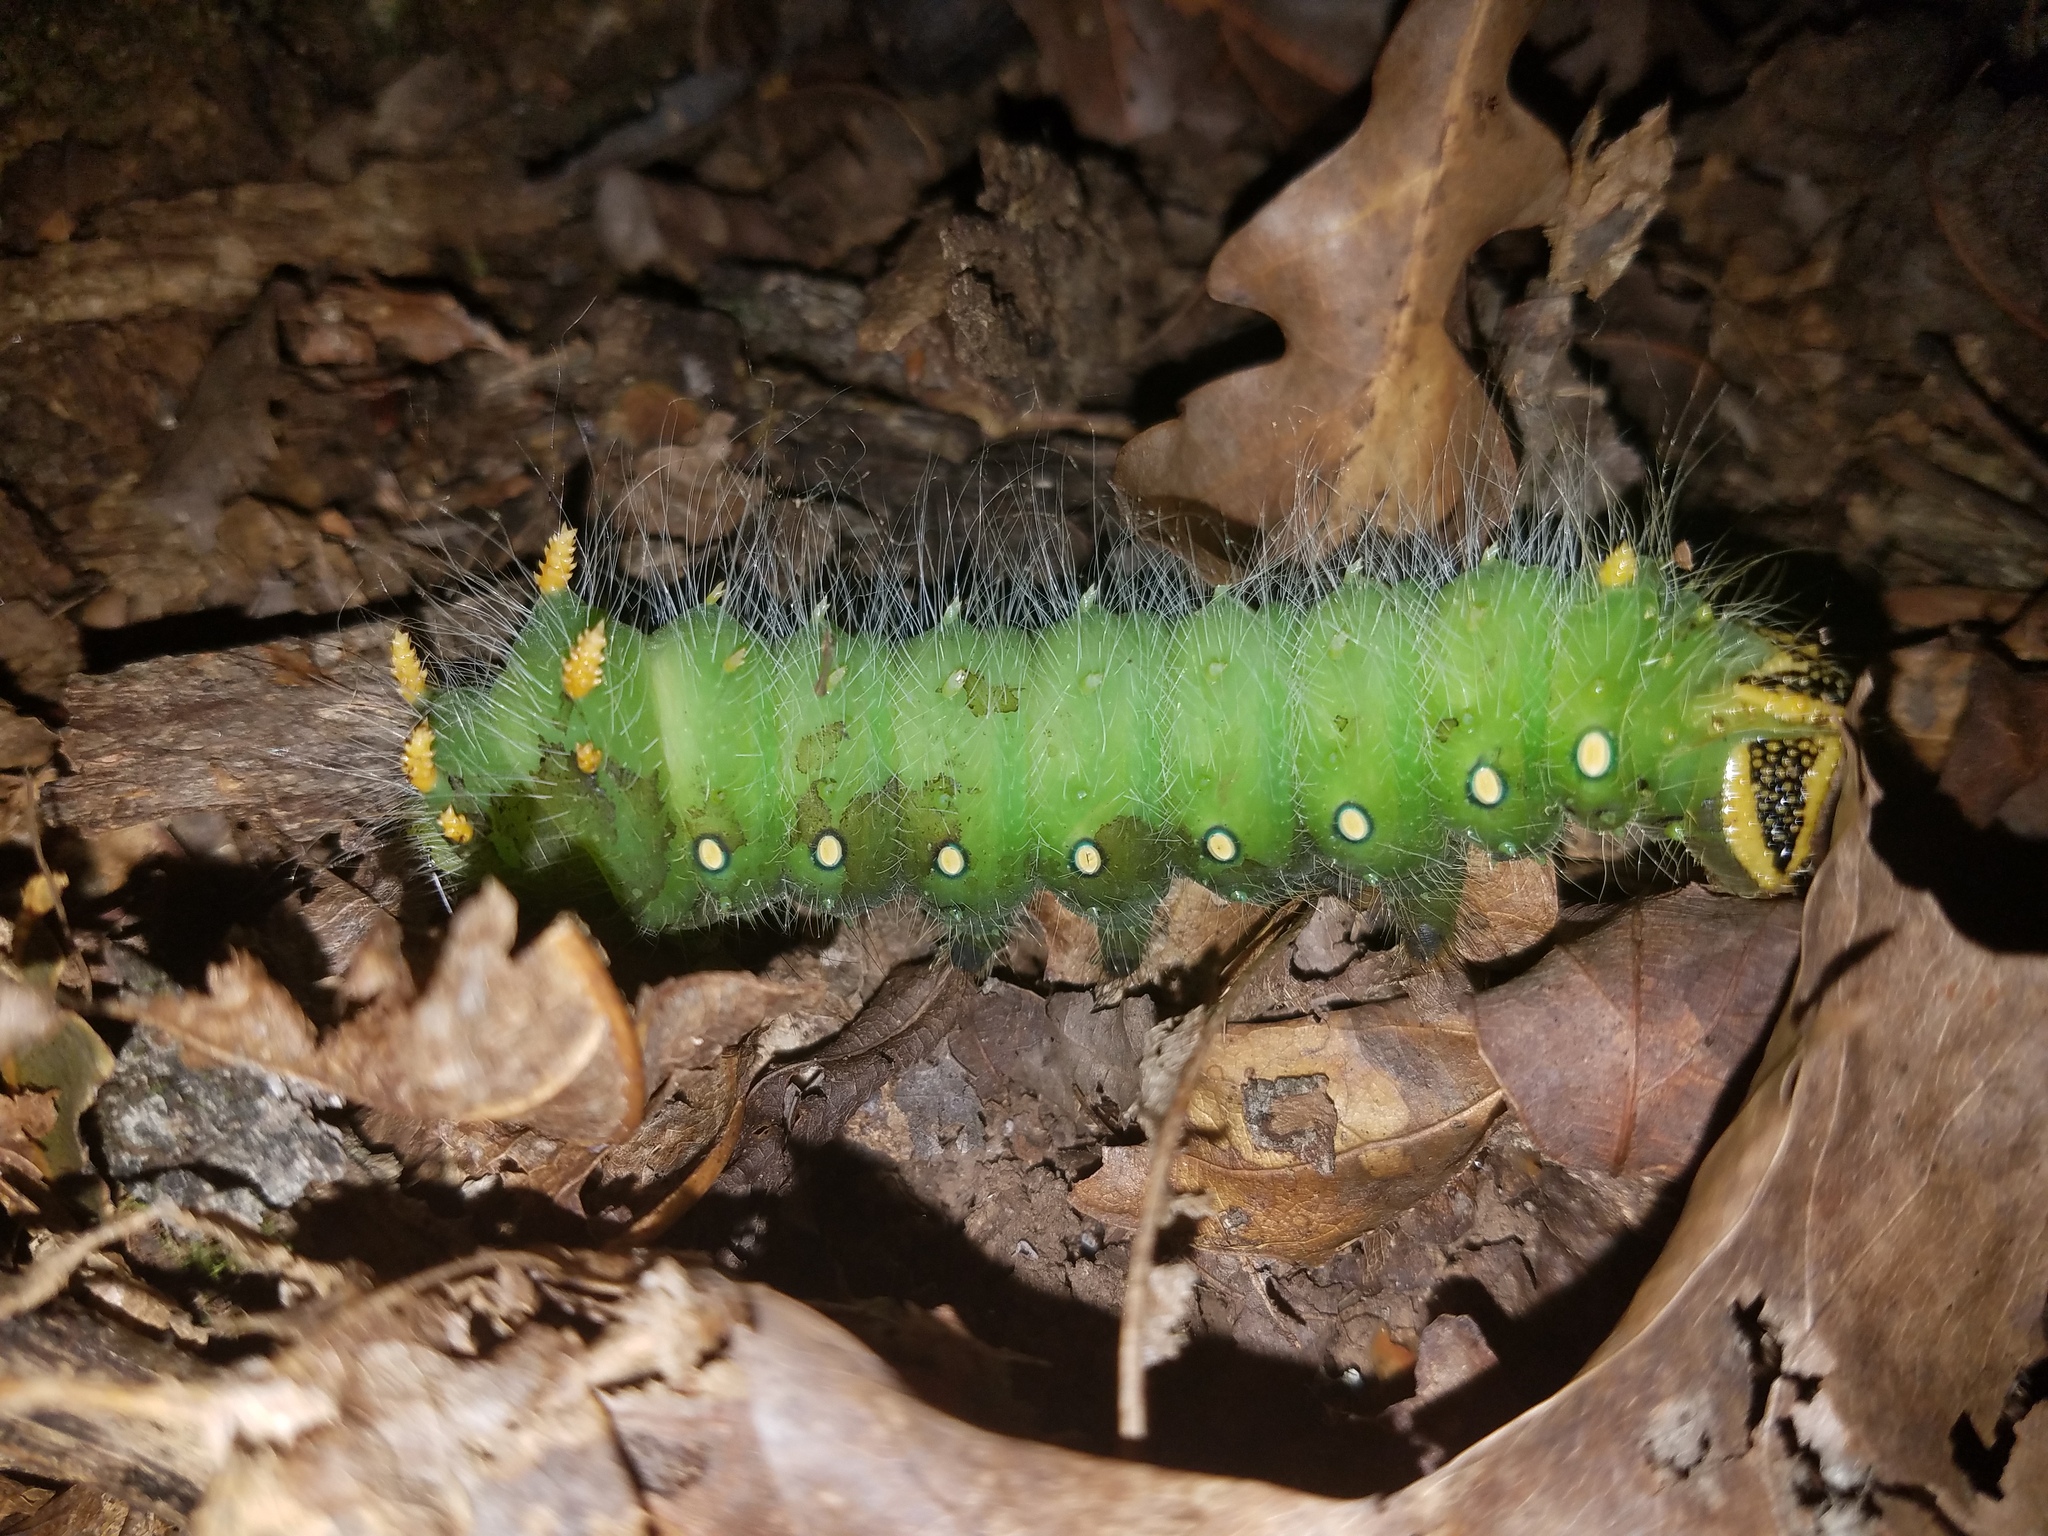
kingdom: Animalia
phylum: Arthropoda
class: Insecta
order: Lepidoptera
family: Saturniidae
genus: Eacles
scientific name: Eacles imperialis
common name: Imperial moth
